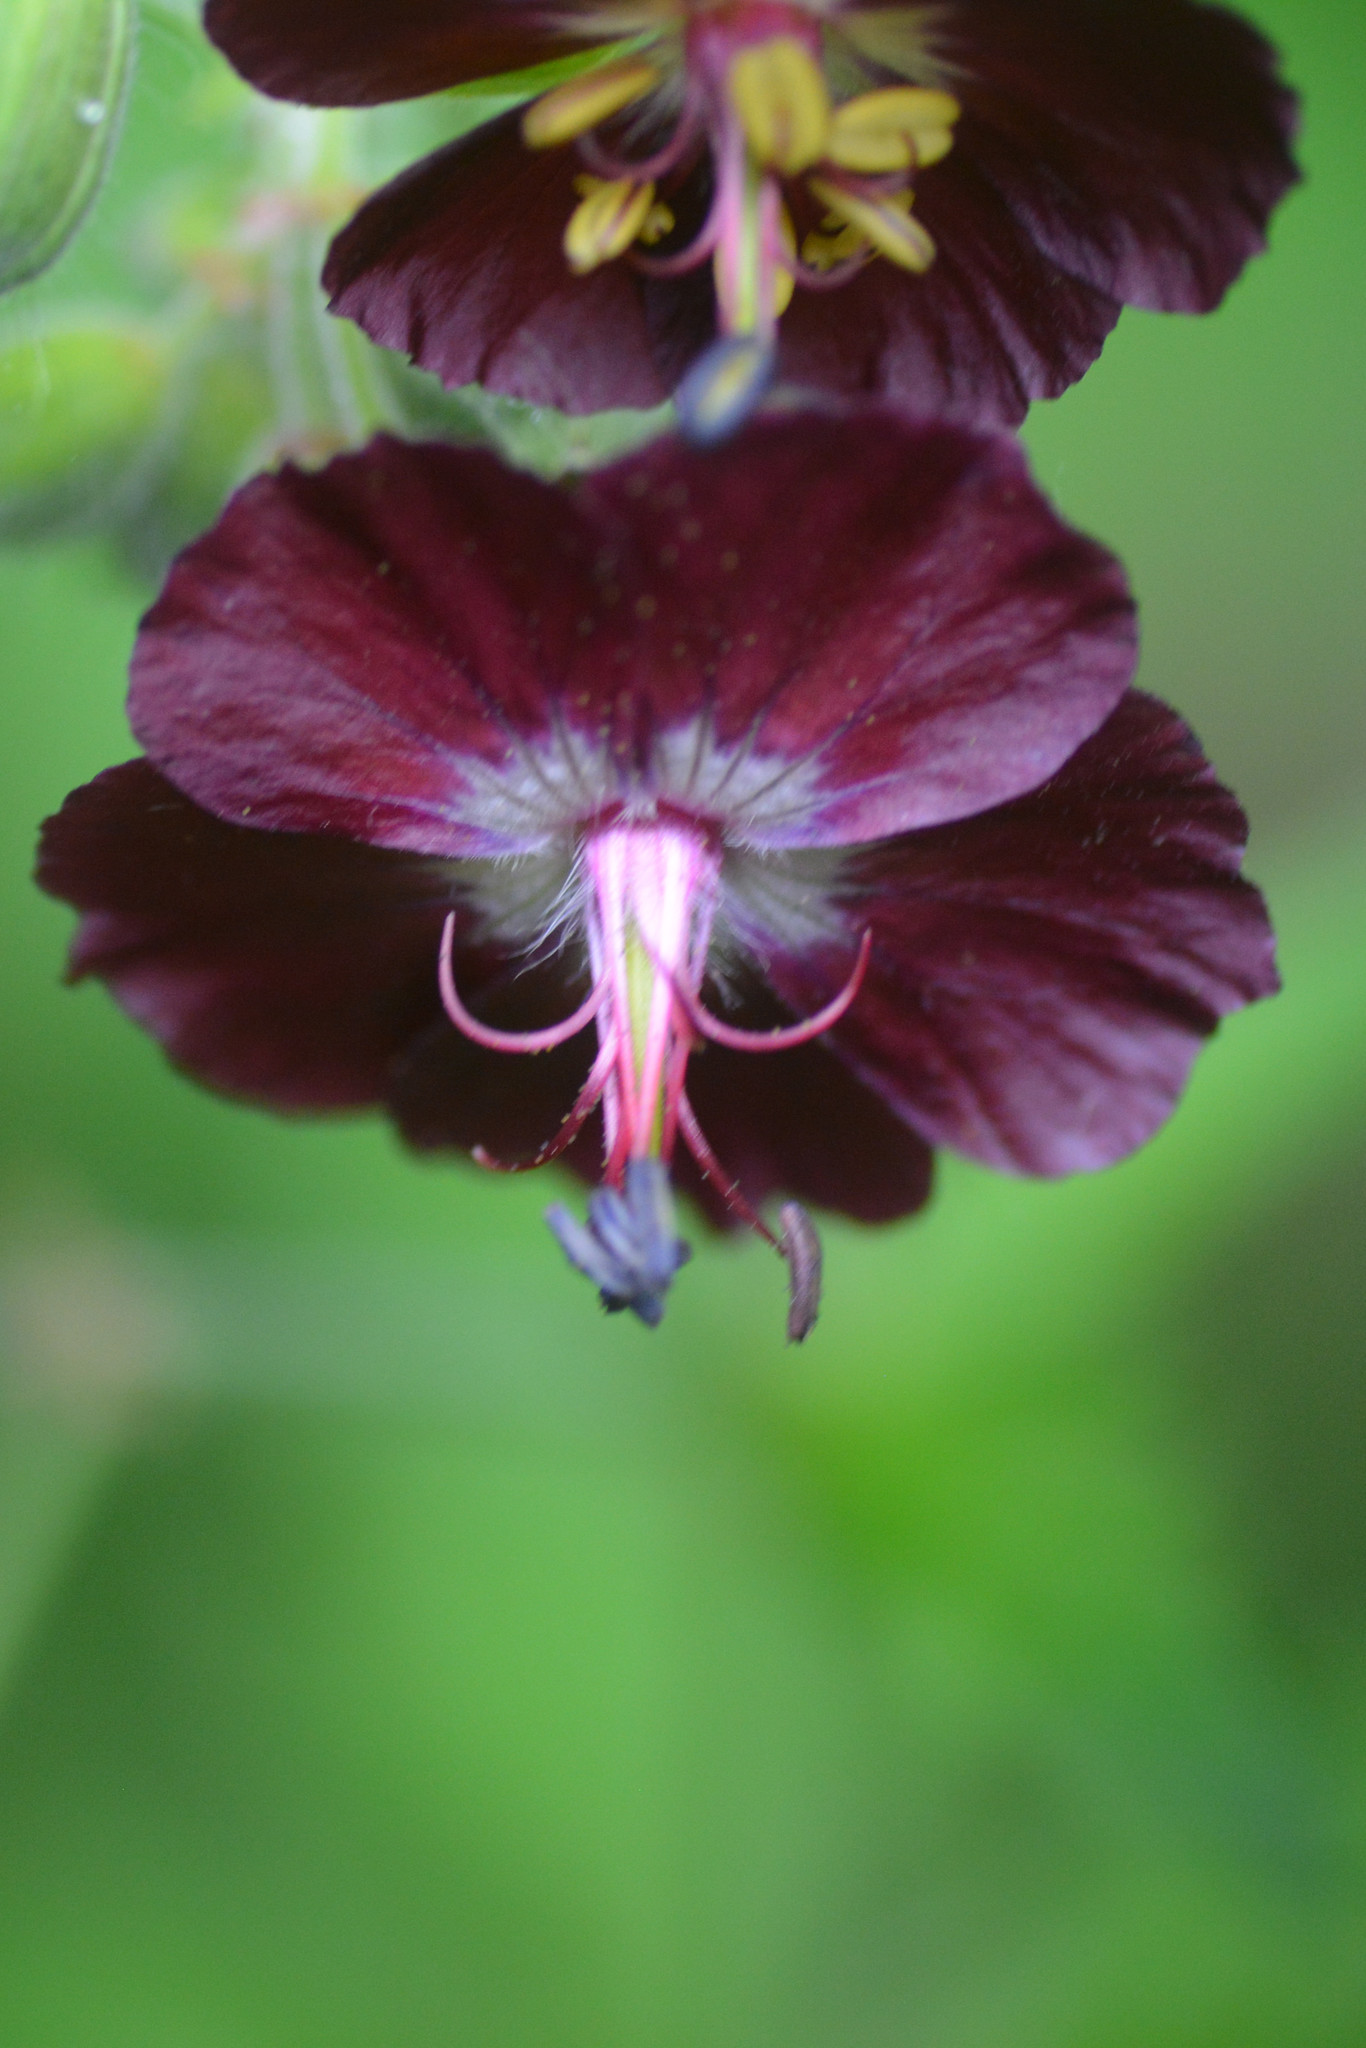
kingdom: Plantae
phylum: Tracheophyta
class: Magnoliopsida
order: Geraniales
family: Geraniaceae
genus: Geranium
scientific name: Geranium phaeum
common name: Dusky crane's-bill
